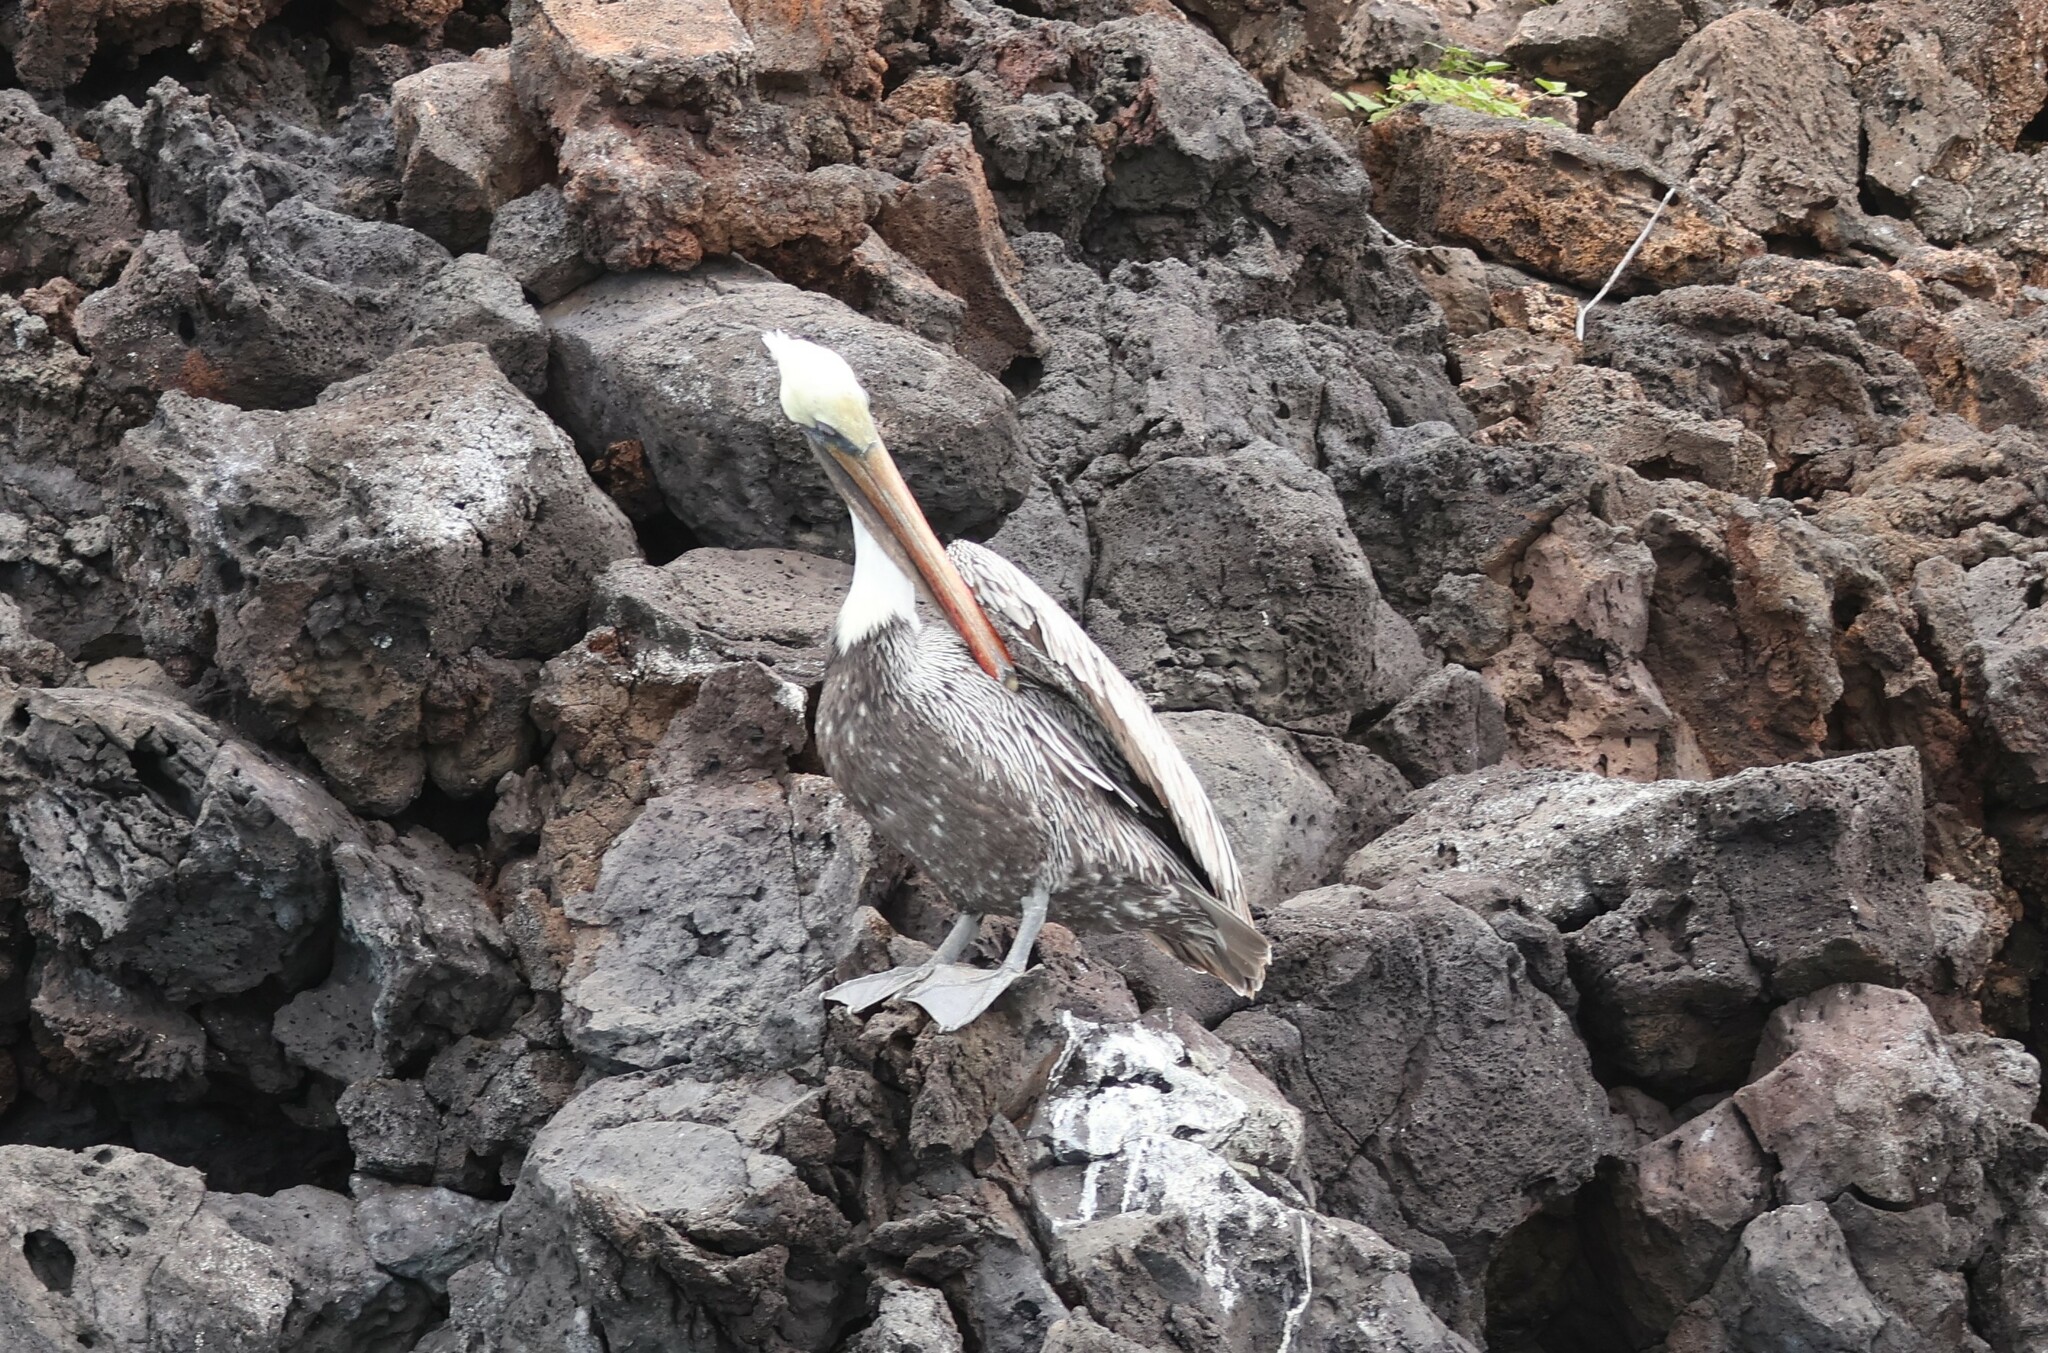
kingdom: Animalia
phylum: Chordata
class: Aves
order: Pelecaniformes
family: Pelecanidae
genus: Pelecanus
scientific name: Pelecanus occidentalis
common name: Brown pelican
